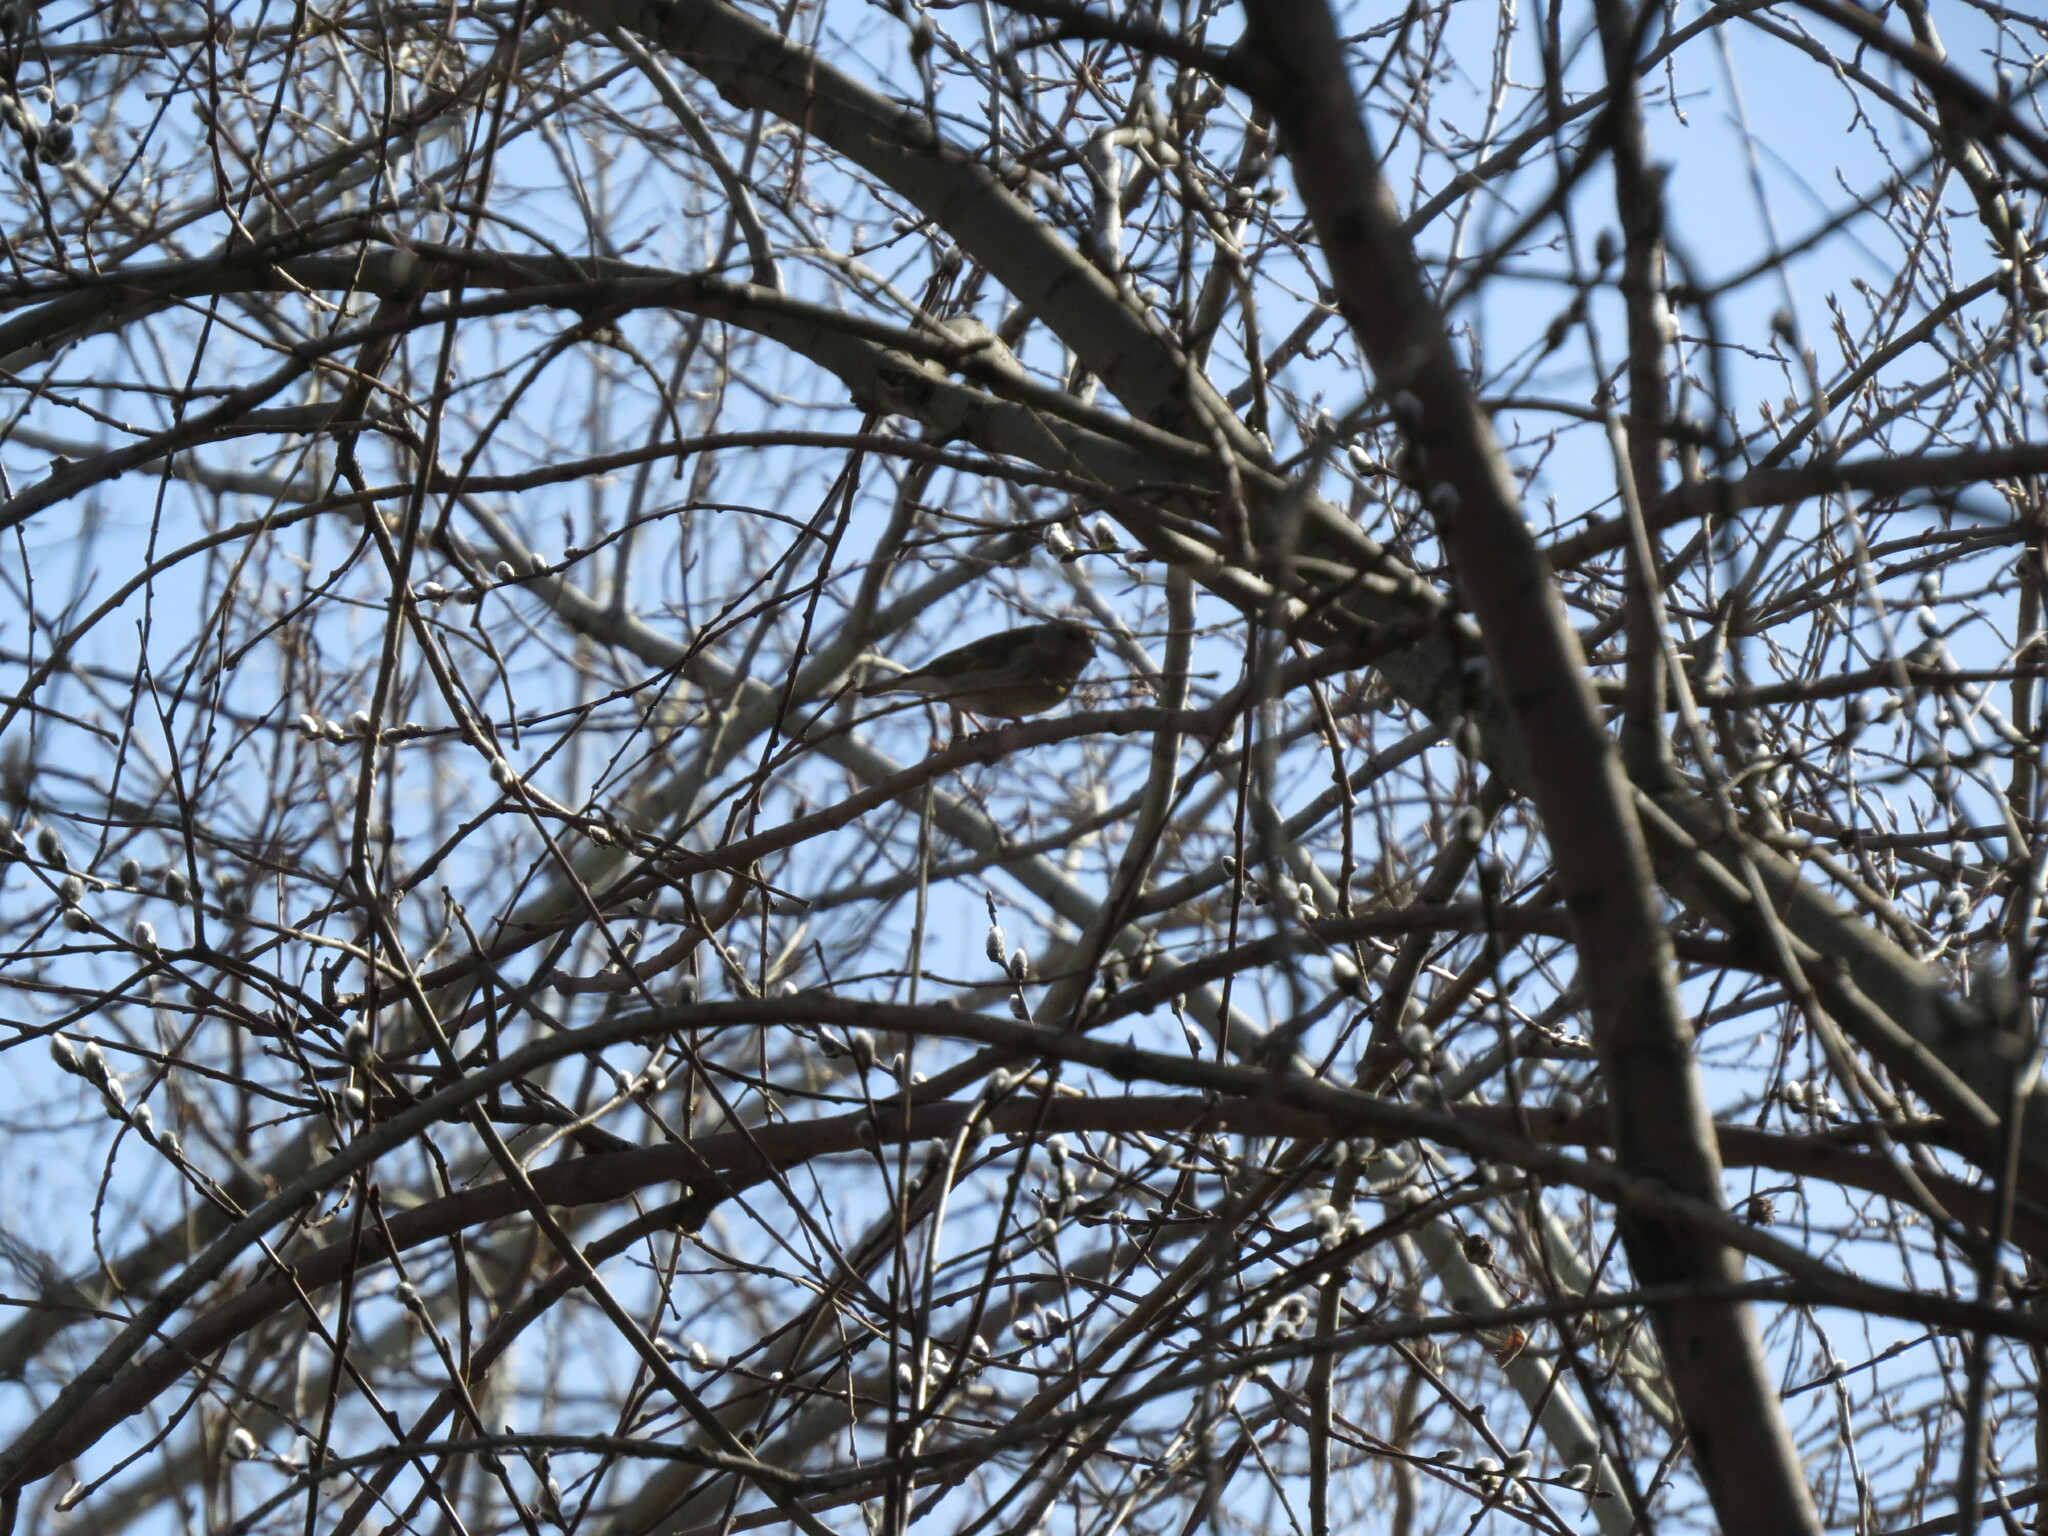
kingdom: Animalia
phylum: Chordata
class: Aves
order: Passeriformes
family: Fringillidae
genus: Linaria
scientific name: Linaria cannabina
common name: Common linnet
